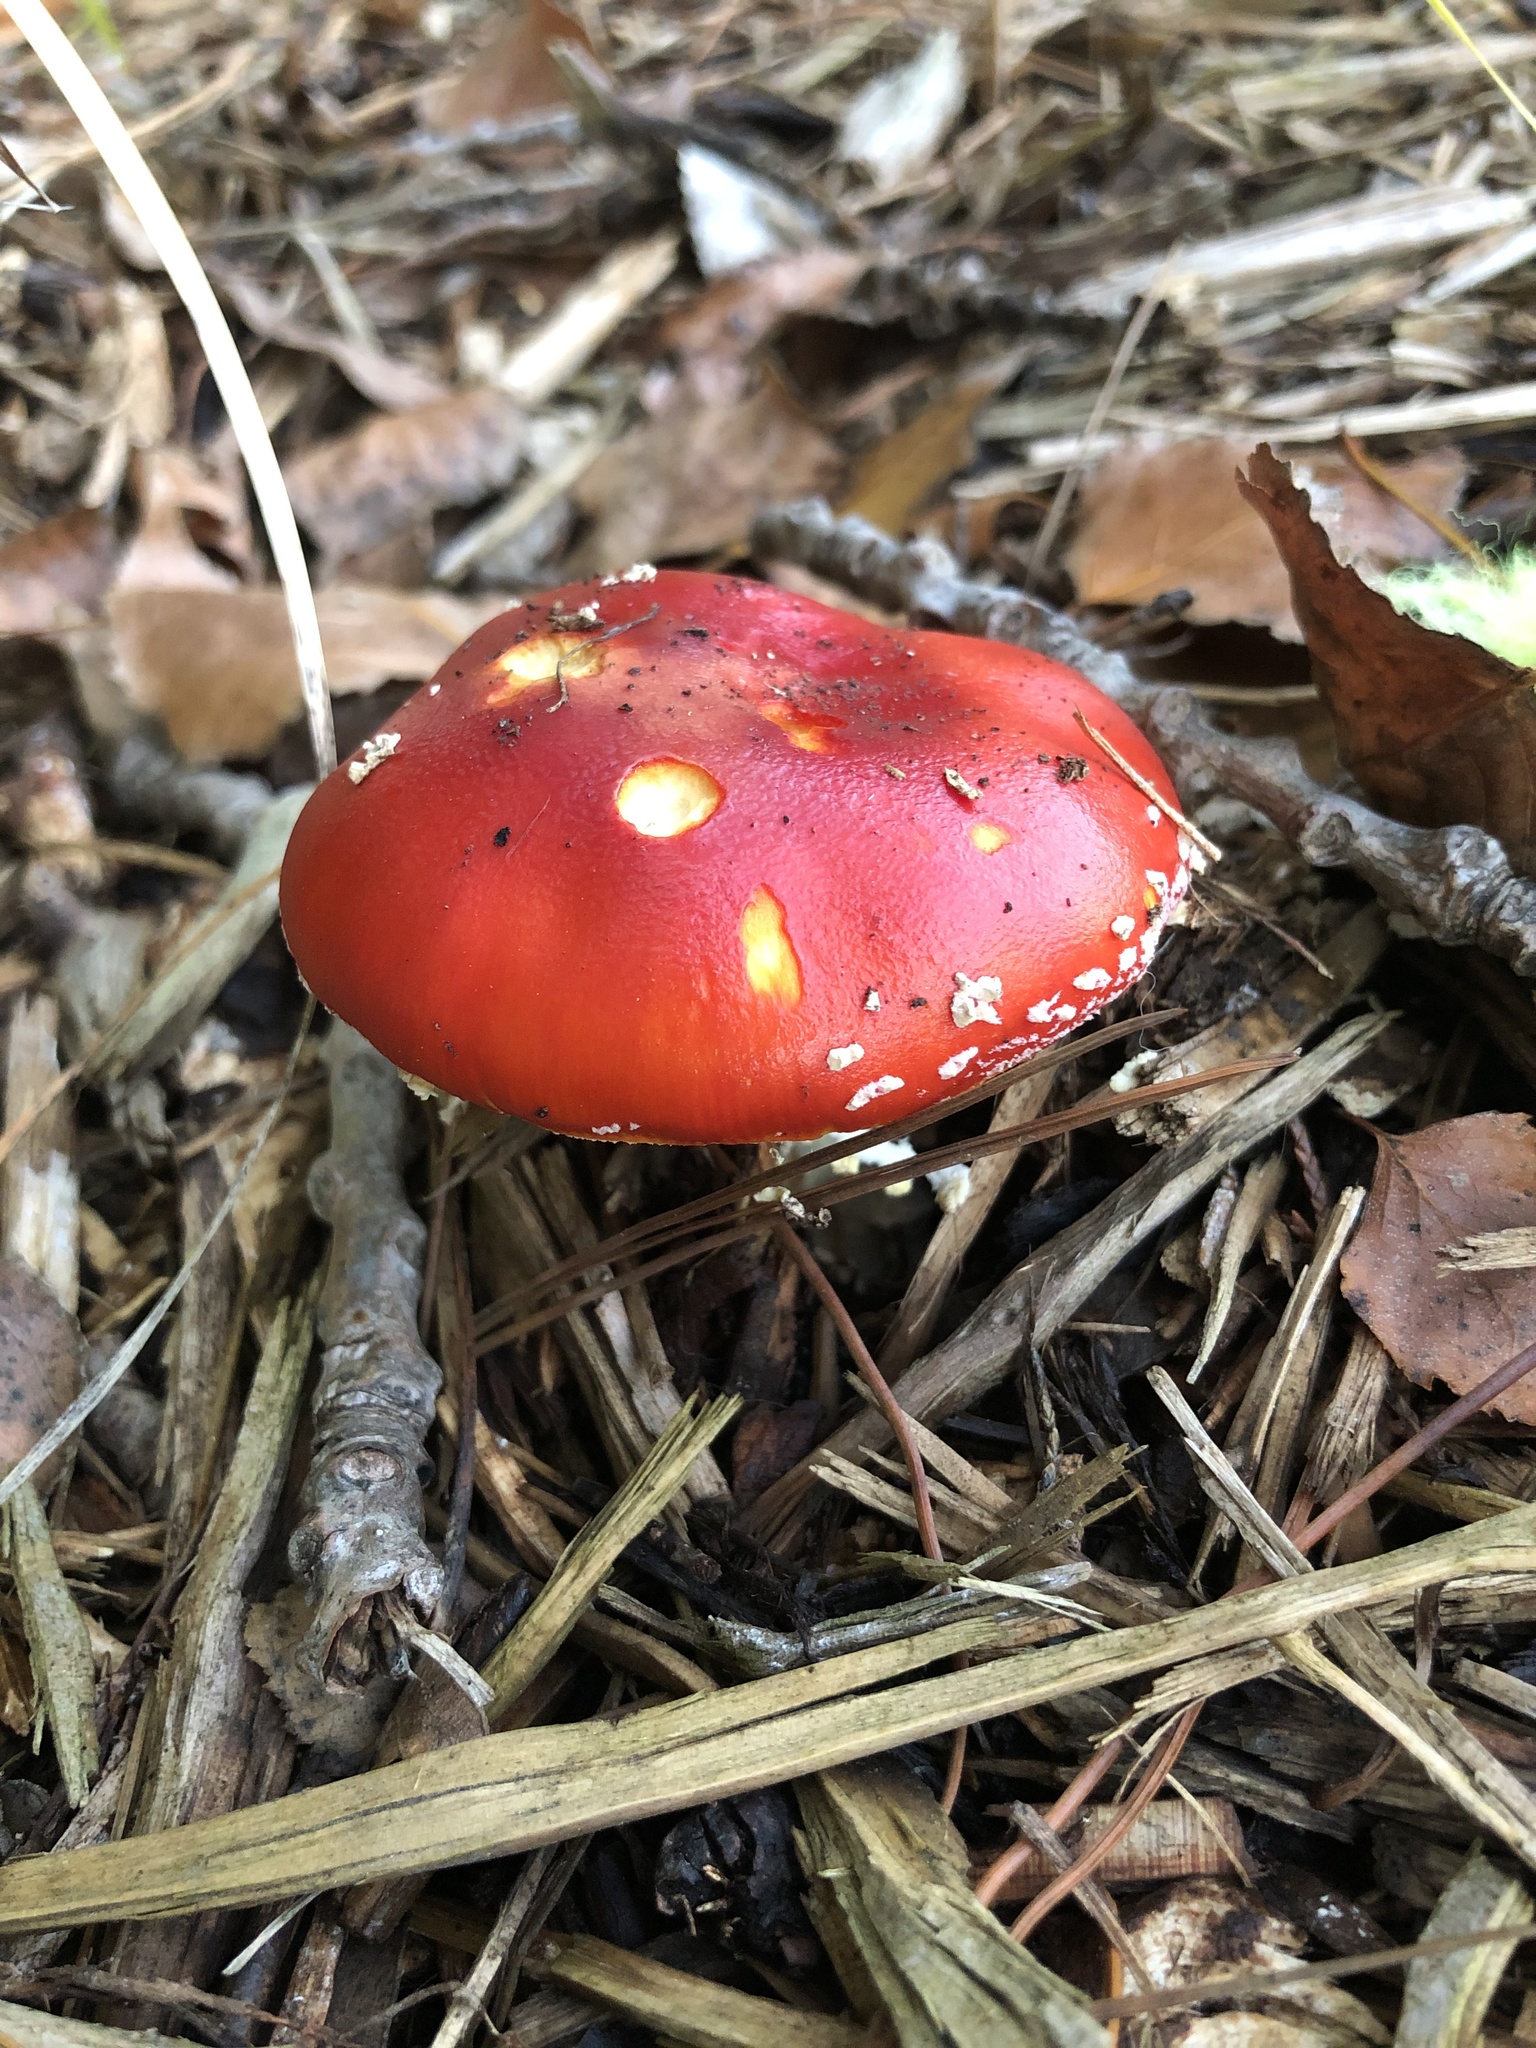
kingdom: Fungi
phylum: Basidiomycota
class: Agaricomycetes
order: Agaricales
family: Amanitaceae
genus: Amanita
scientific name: Amanita muscaria
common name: Fly agaric
